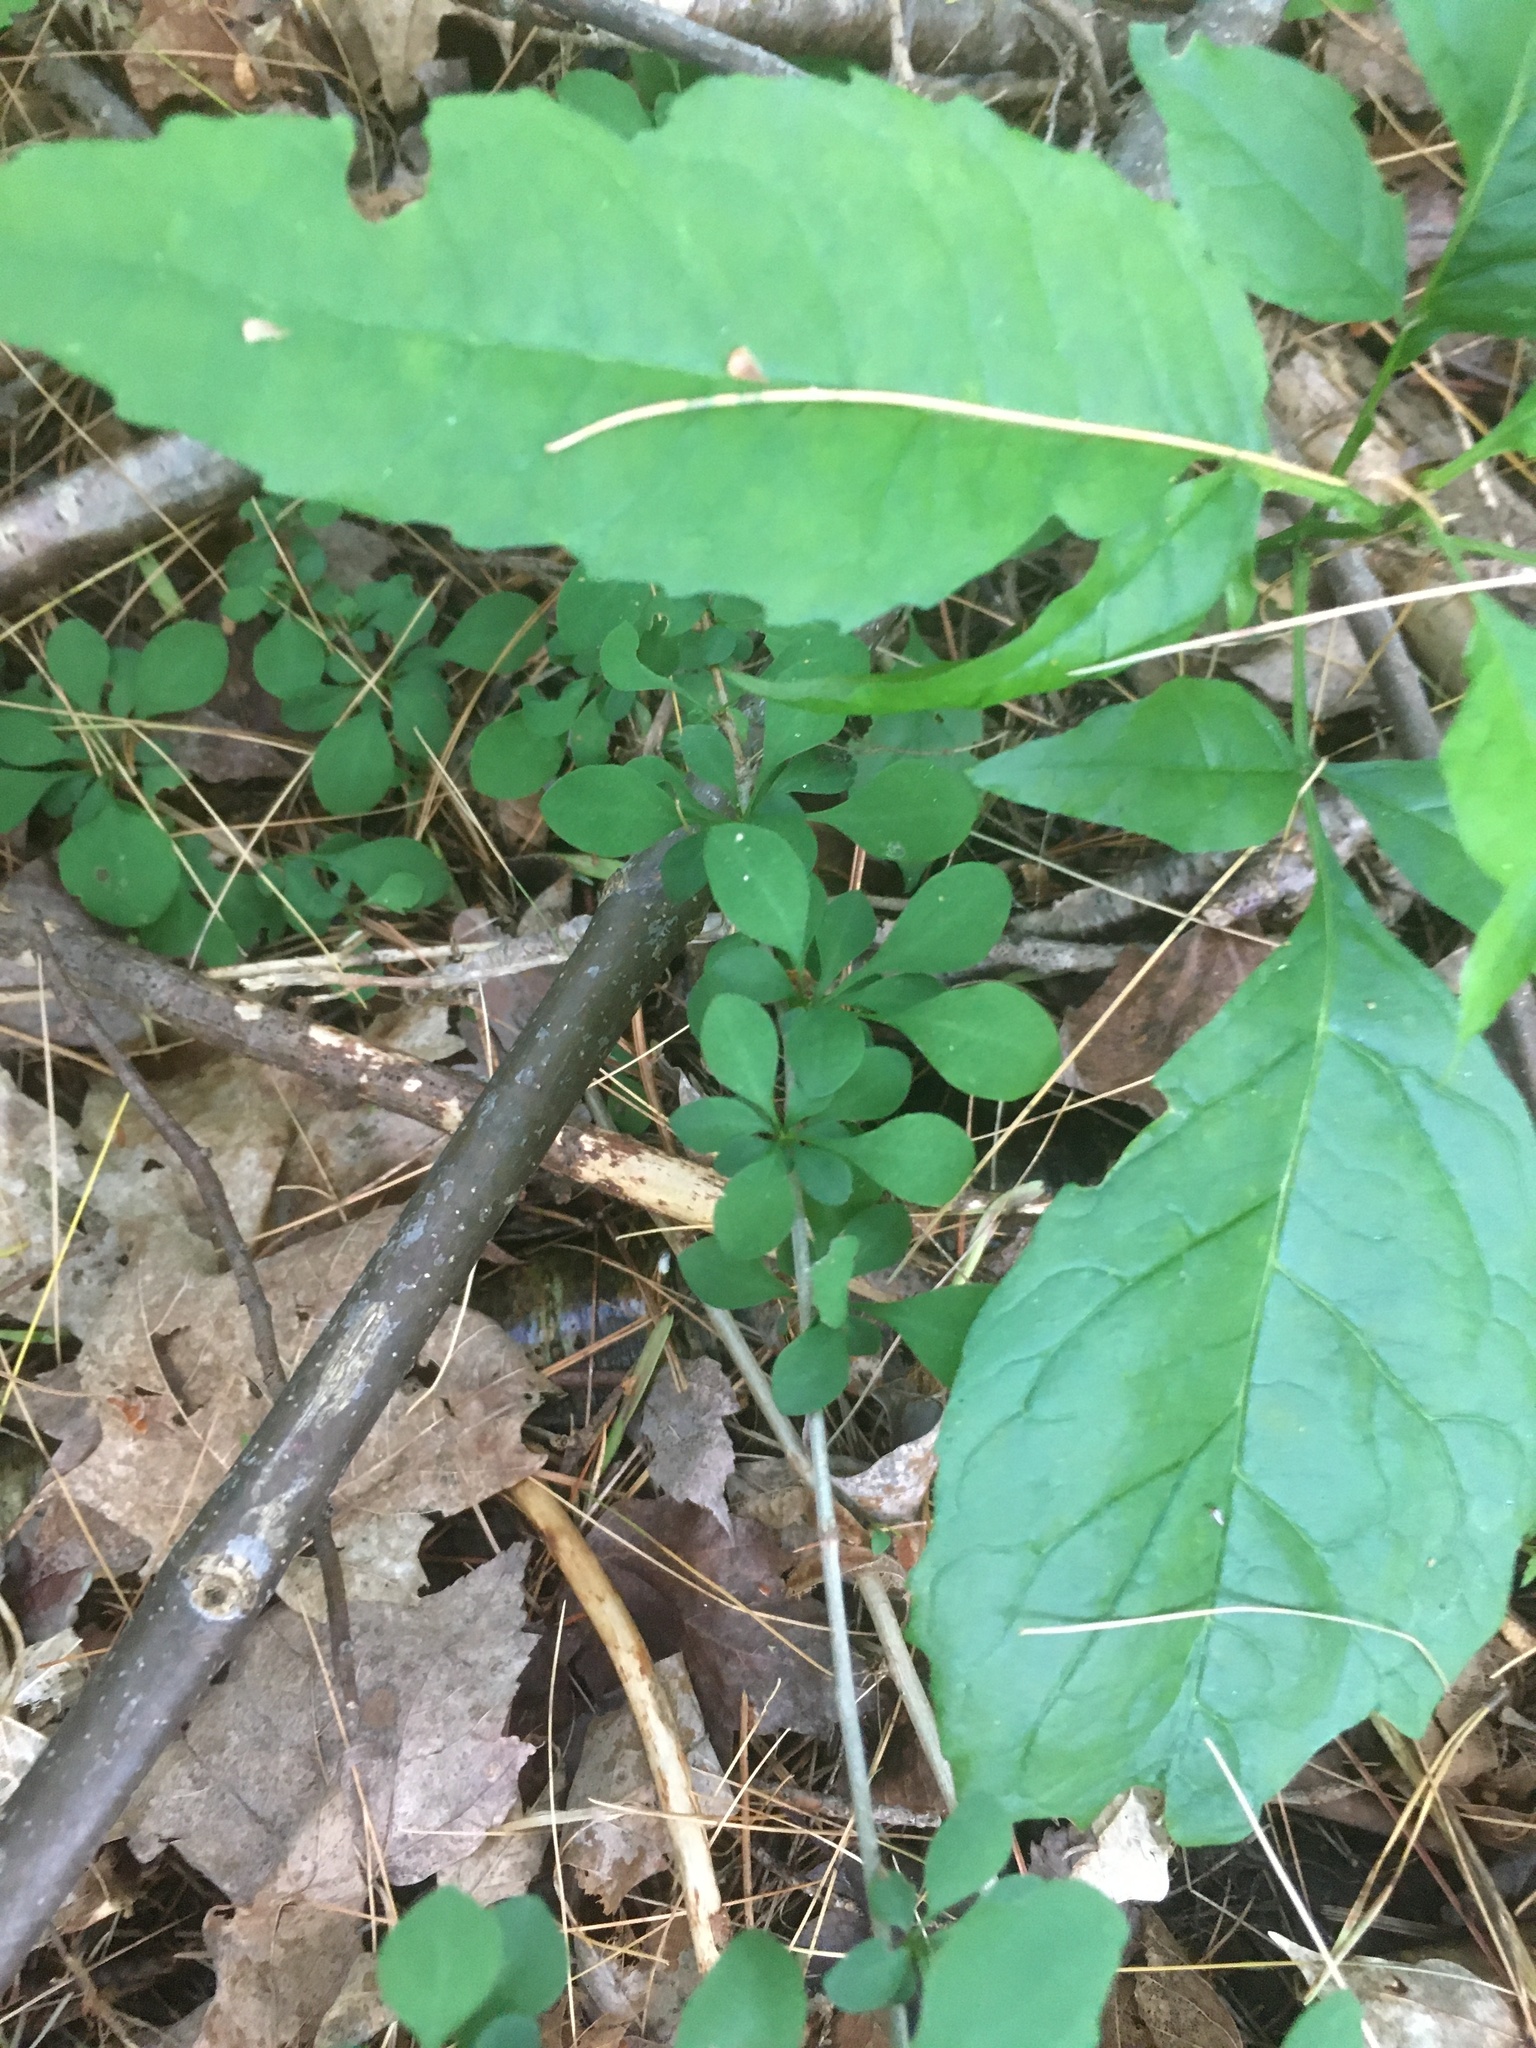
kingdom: Plantae
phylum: Tracheophyta
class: Magnoliopsida
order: Ranunculales
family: Berberidaceae
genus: Berberis
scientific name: Berberis thunbergii
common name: Japanese barberry
